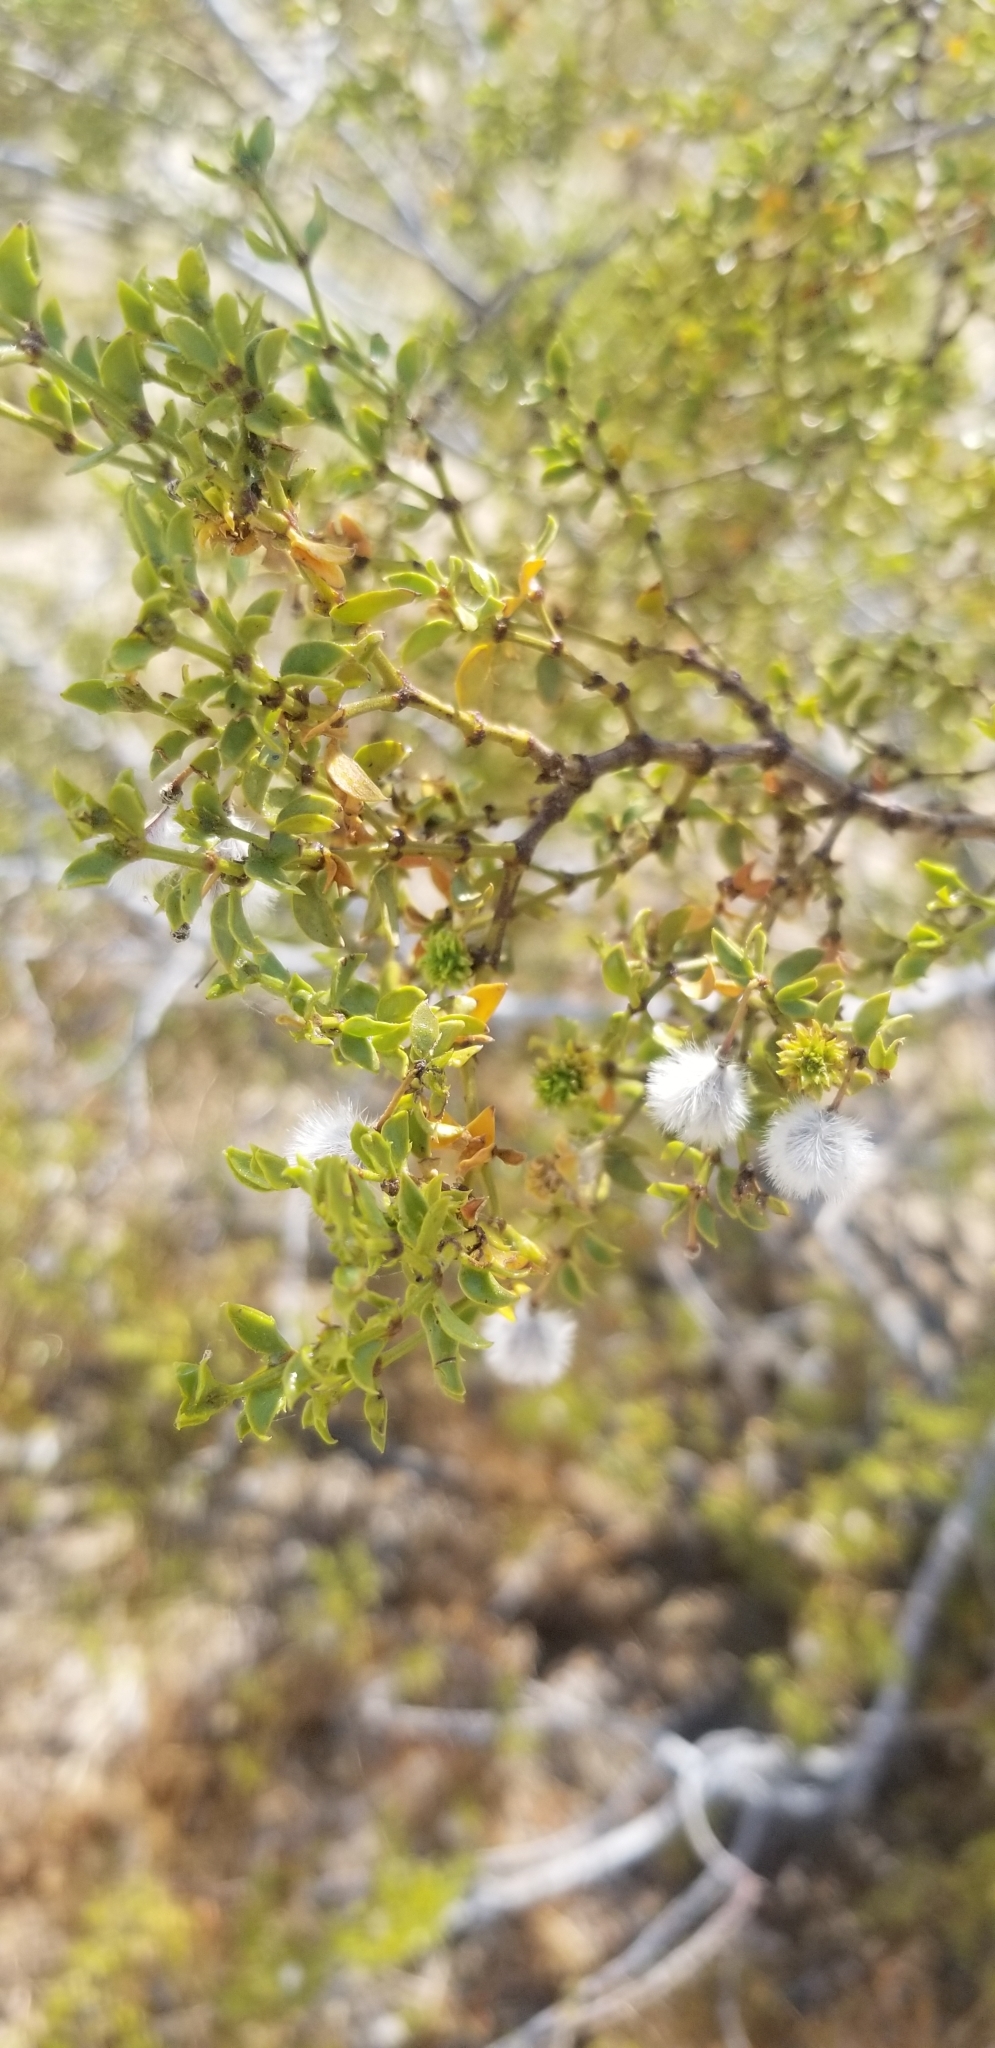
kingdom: Plantae
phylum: Tracheophyta
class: Magnoliopsida
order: Zygophyllales
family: Zygophyllaceae
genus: Larrea
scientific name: Larrea tridentata
